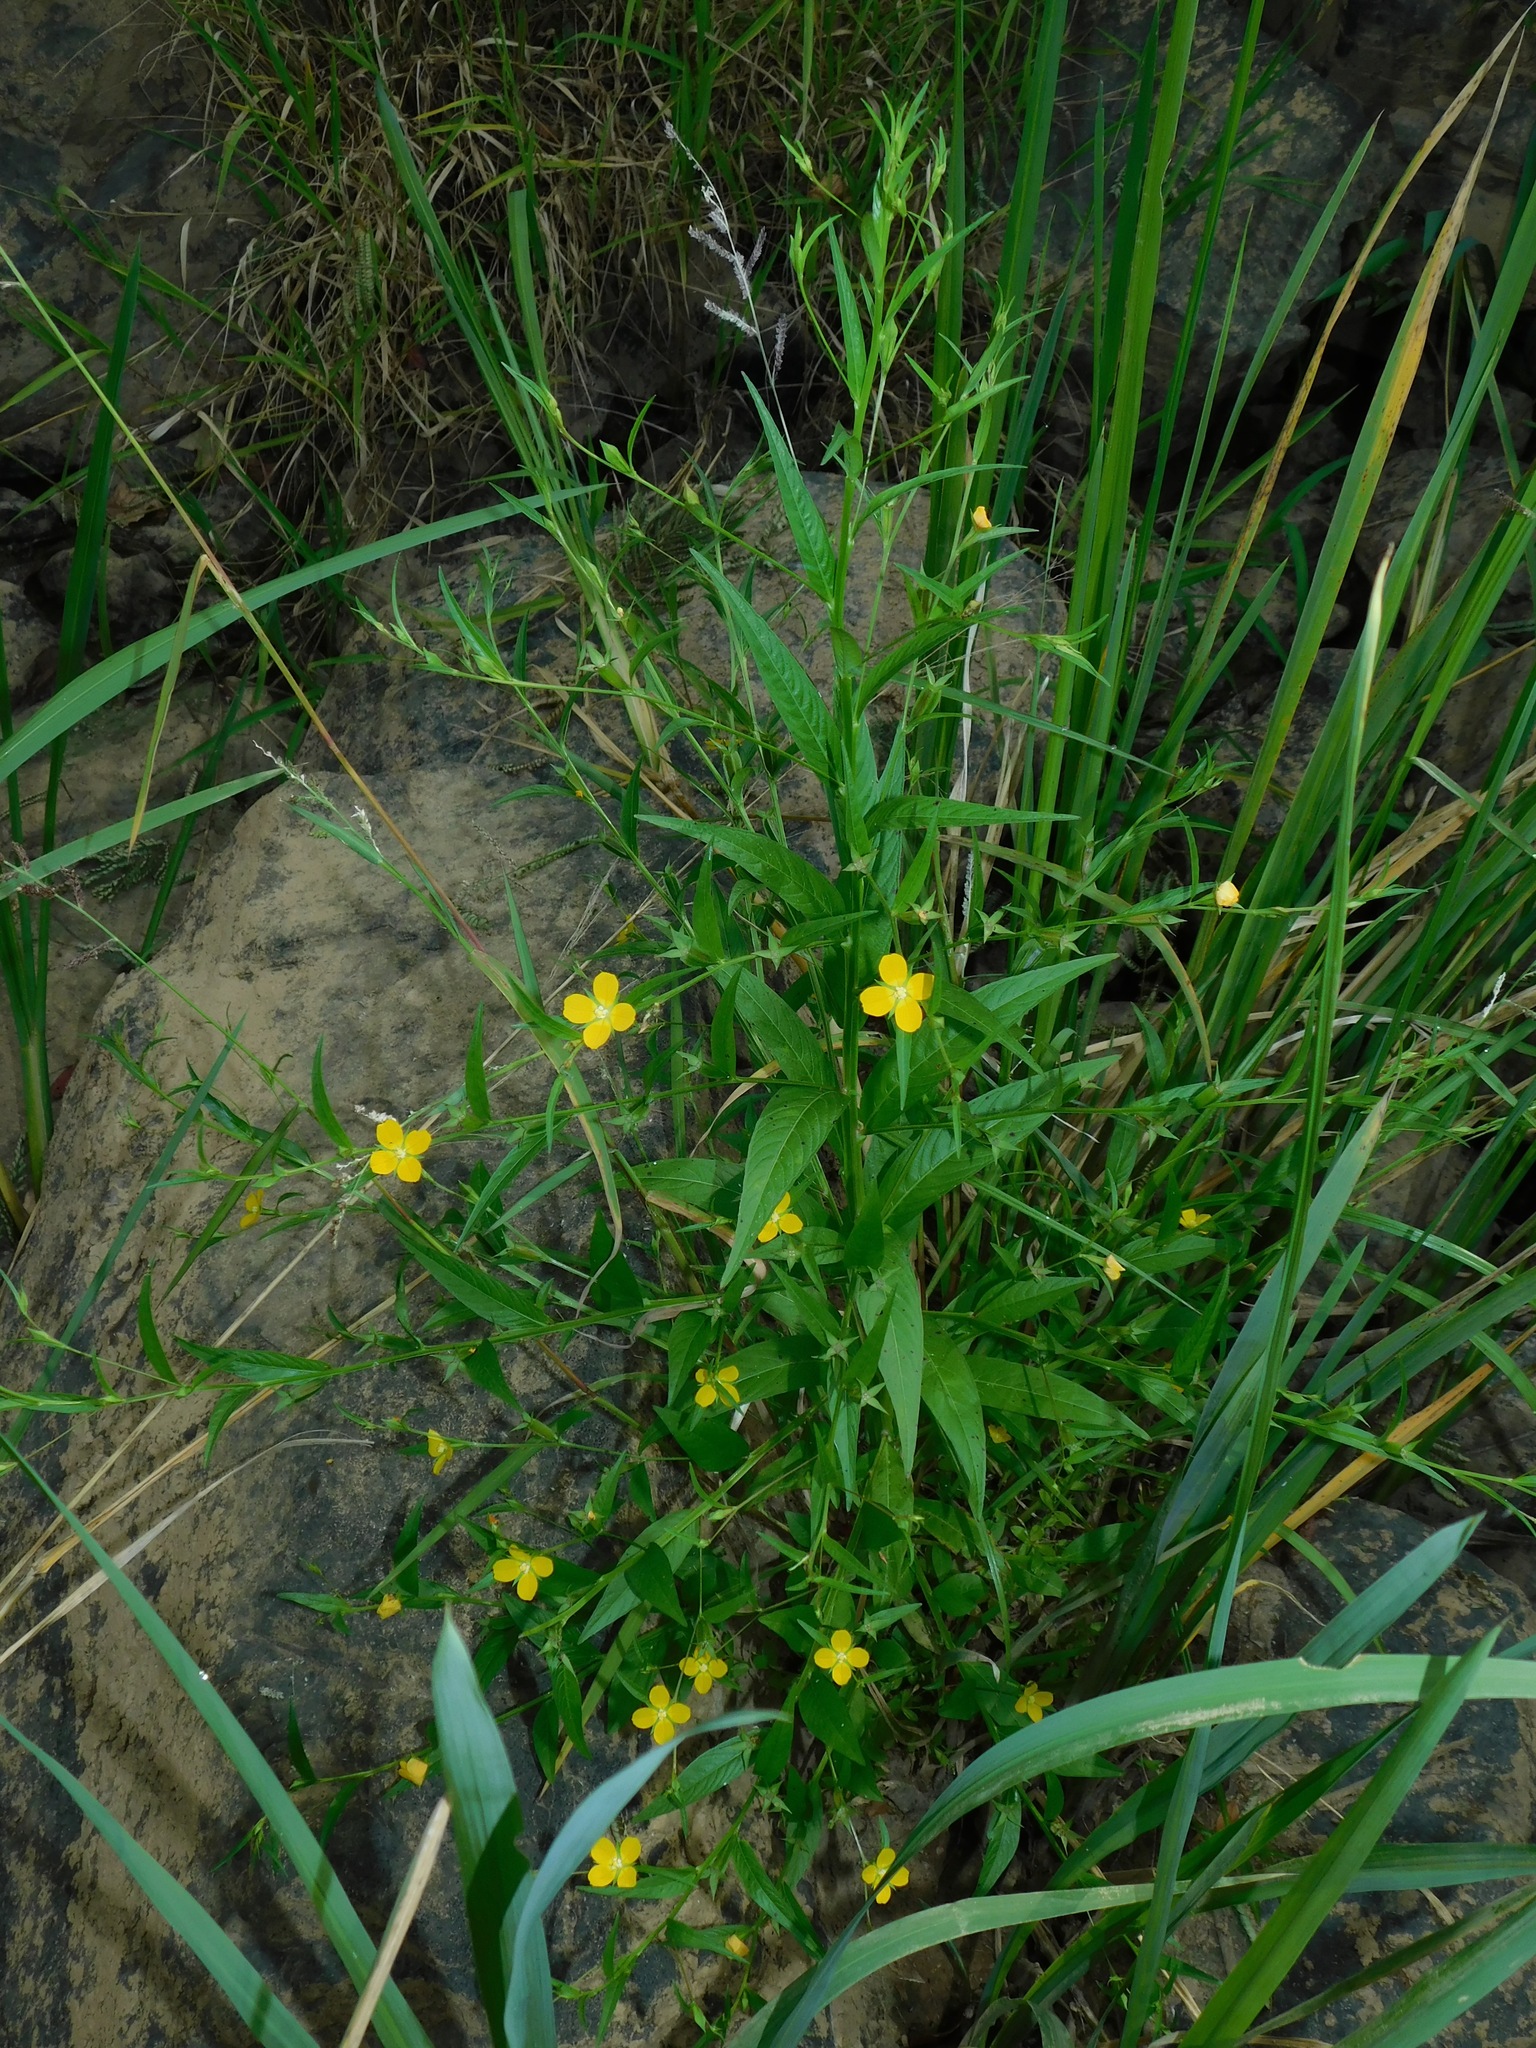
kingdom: Plantae
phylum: Tracheophyta
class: Magnoliopsida
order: Myrtales
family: Onagraceae
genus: Ludwigia
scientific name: Ludwigia decurrens
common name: Winged water-primrose
